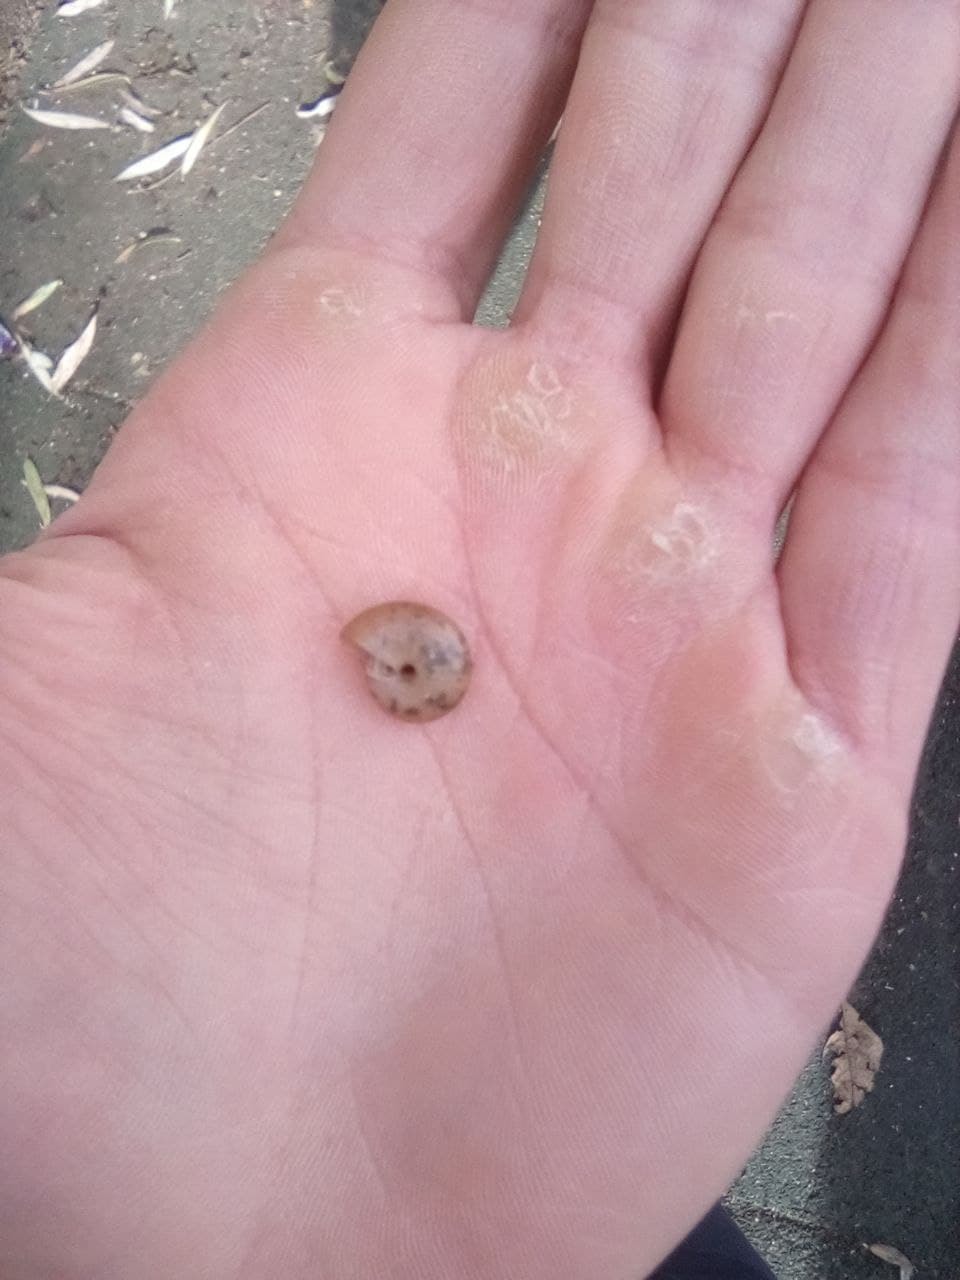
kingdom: Animalia
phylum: Mollusca
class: Gastropoda
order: Stylommatophora
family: Oxychilidae
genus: Oxychilus
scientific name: Oxychilus deilus
